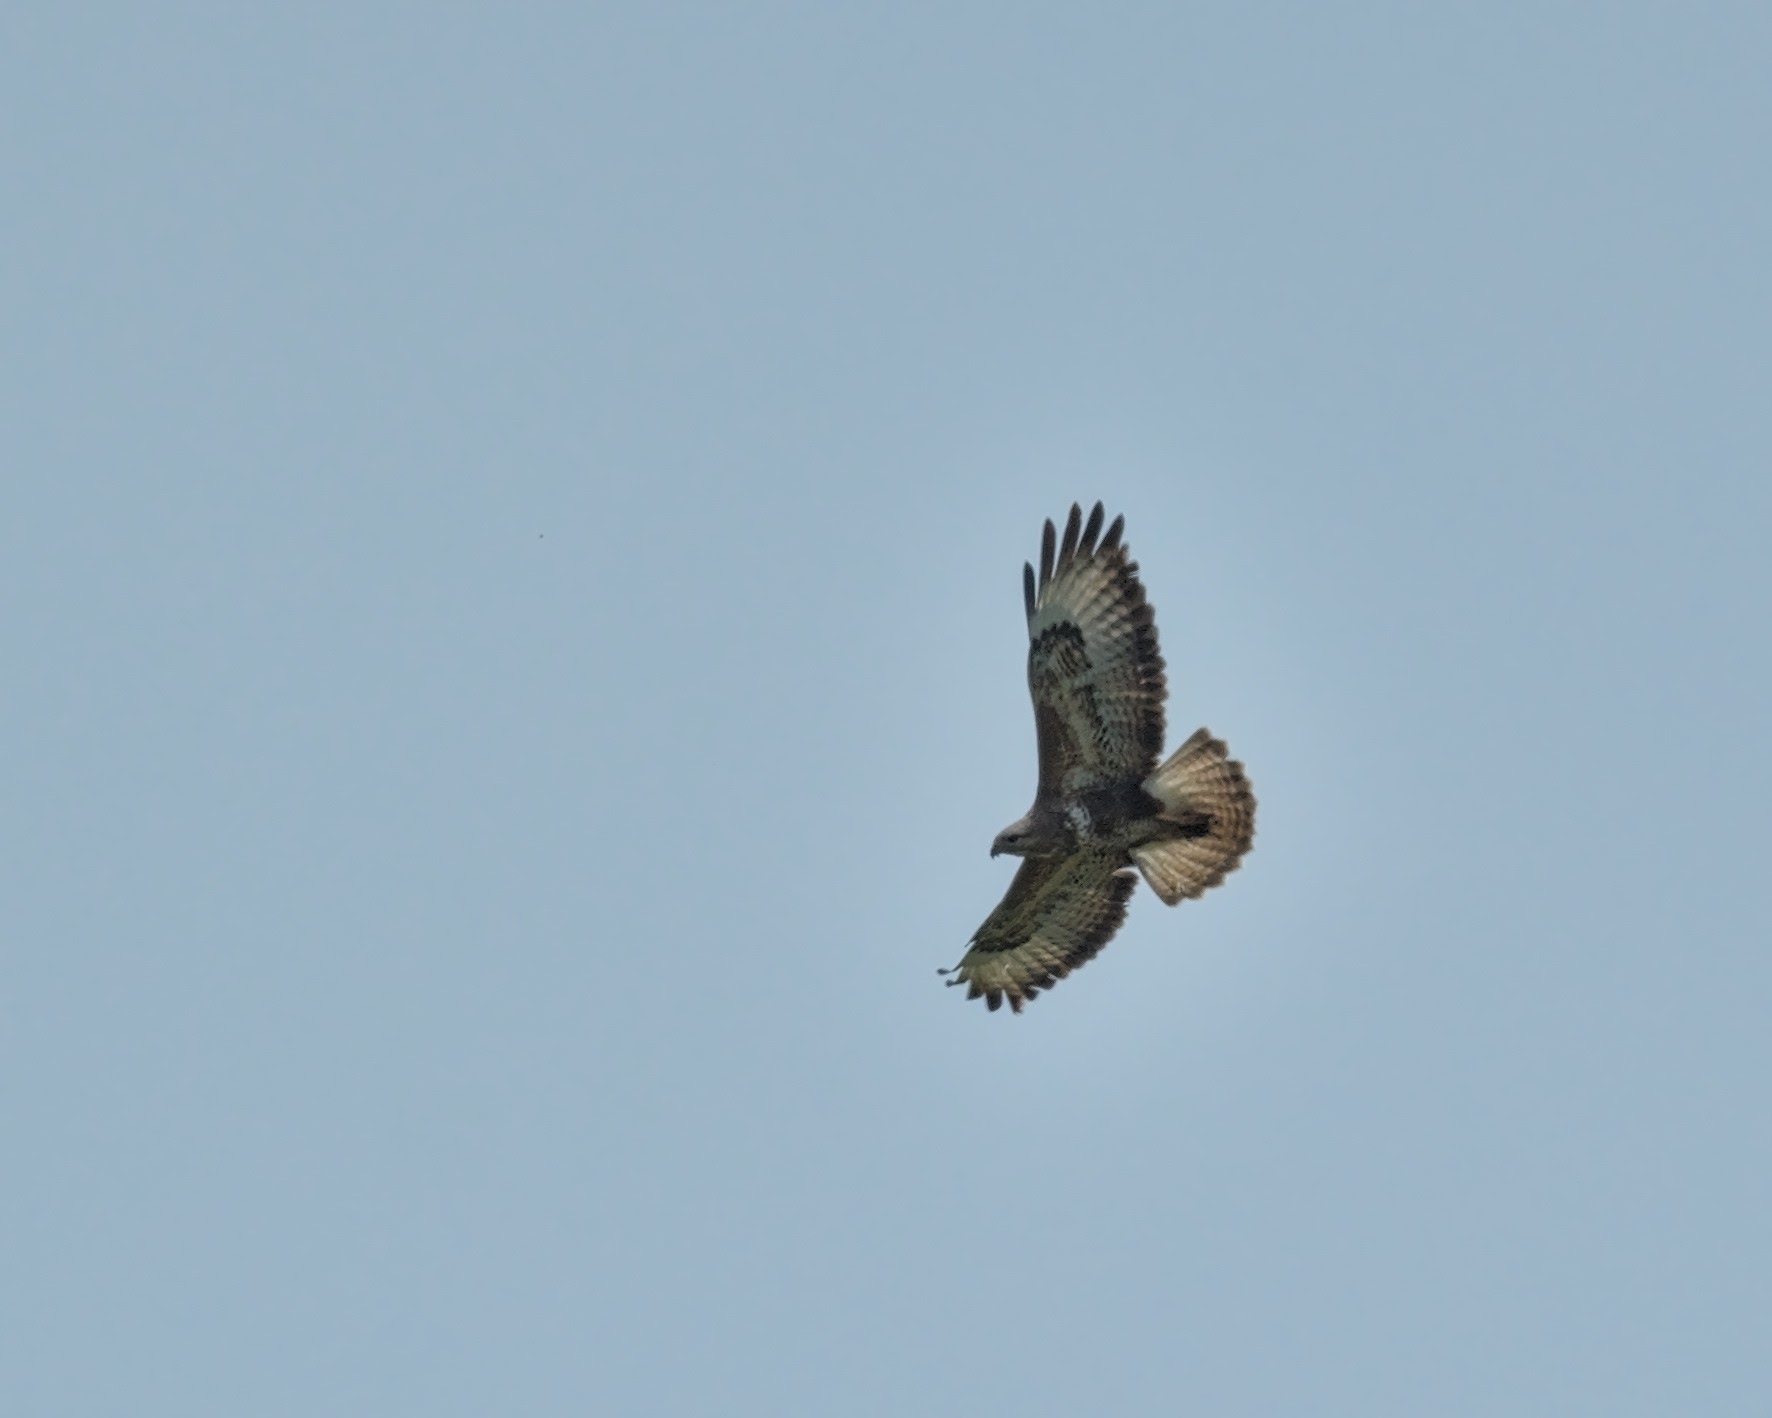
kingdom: Animalia
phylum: Chordata
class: Aves
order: Accipitriformes
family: Accipitridae
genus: Buteo
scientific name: Buteo buteo
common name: Common buzzard
